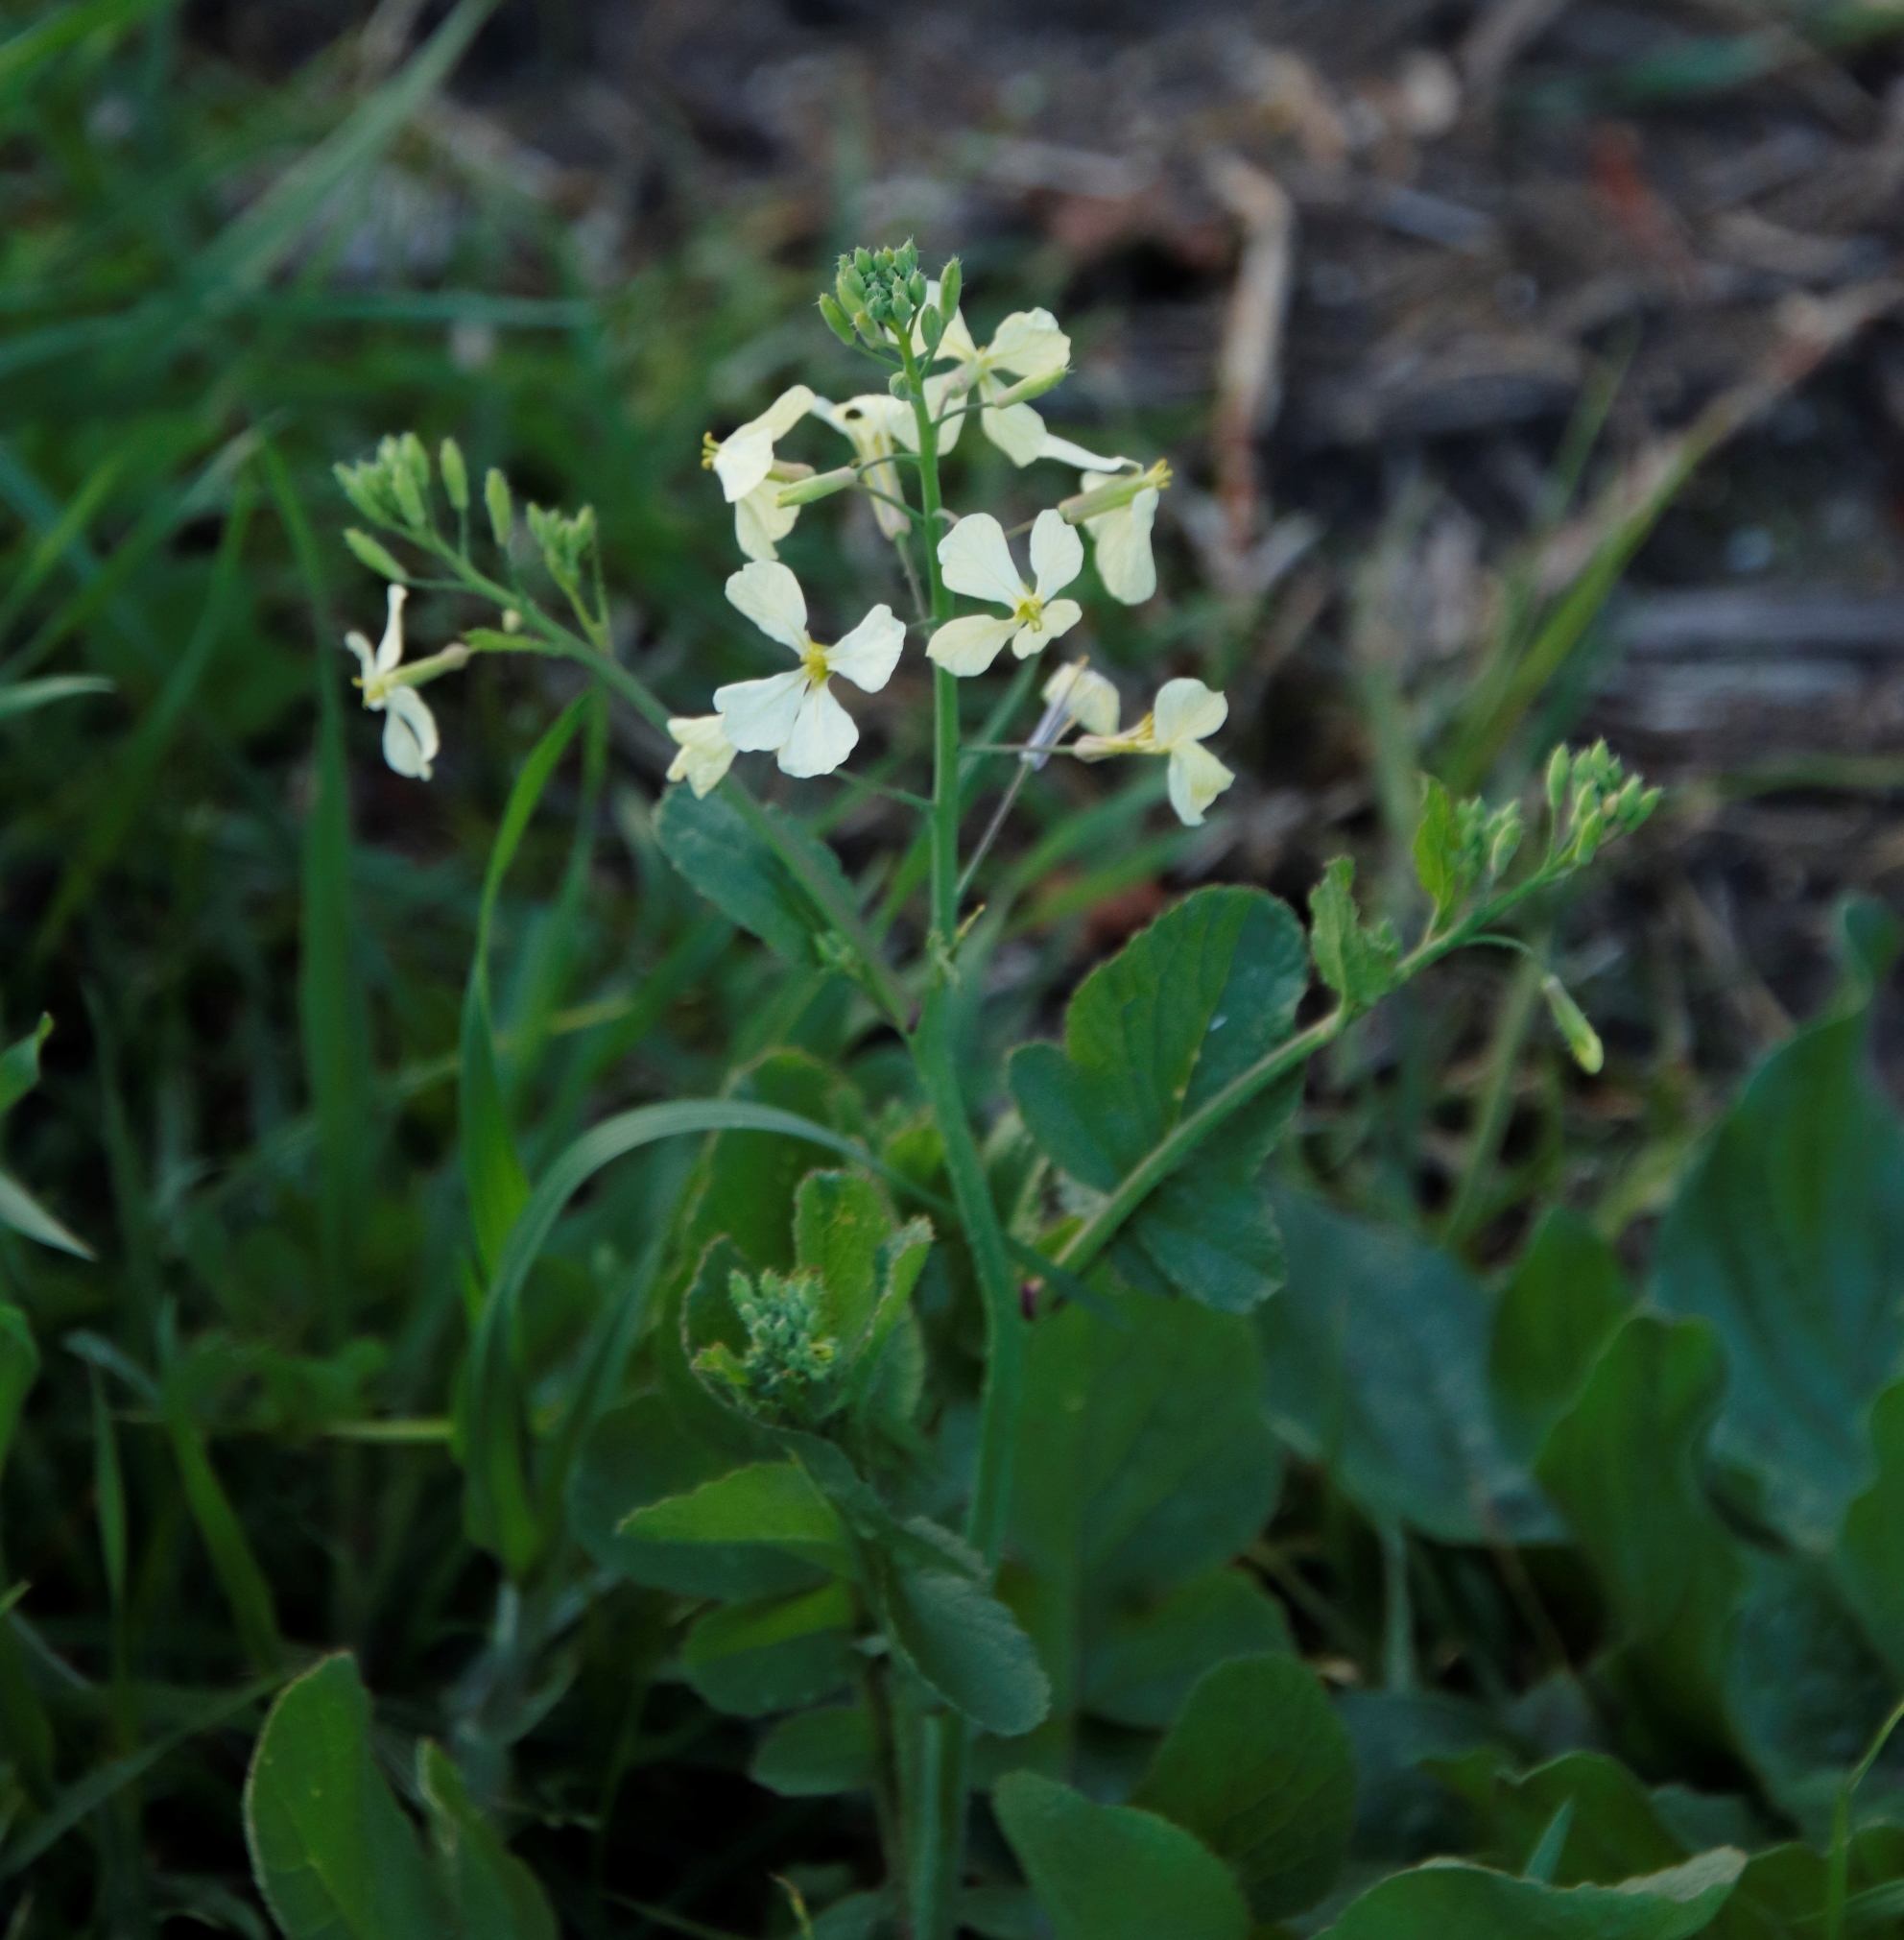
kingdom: Plantae
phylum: Tracheophyta
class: Magnoliopsida
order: Brassicales
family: Brassicaceae
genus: Raphanus
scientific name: Raphanus raphanistrum
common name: Wild radish
